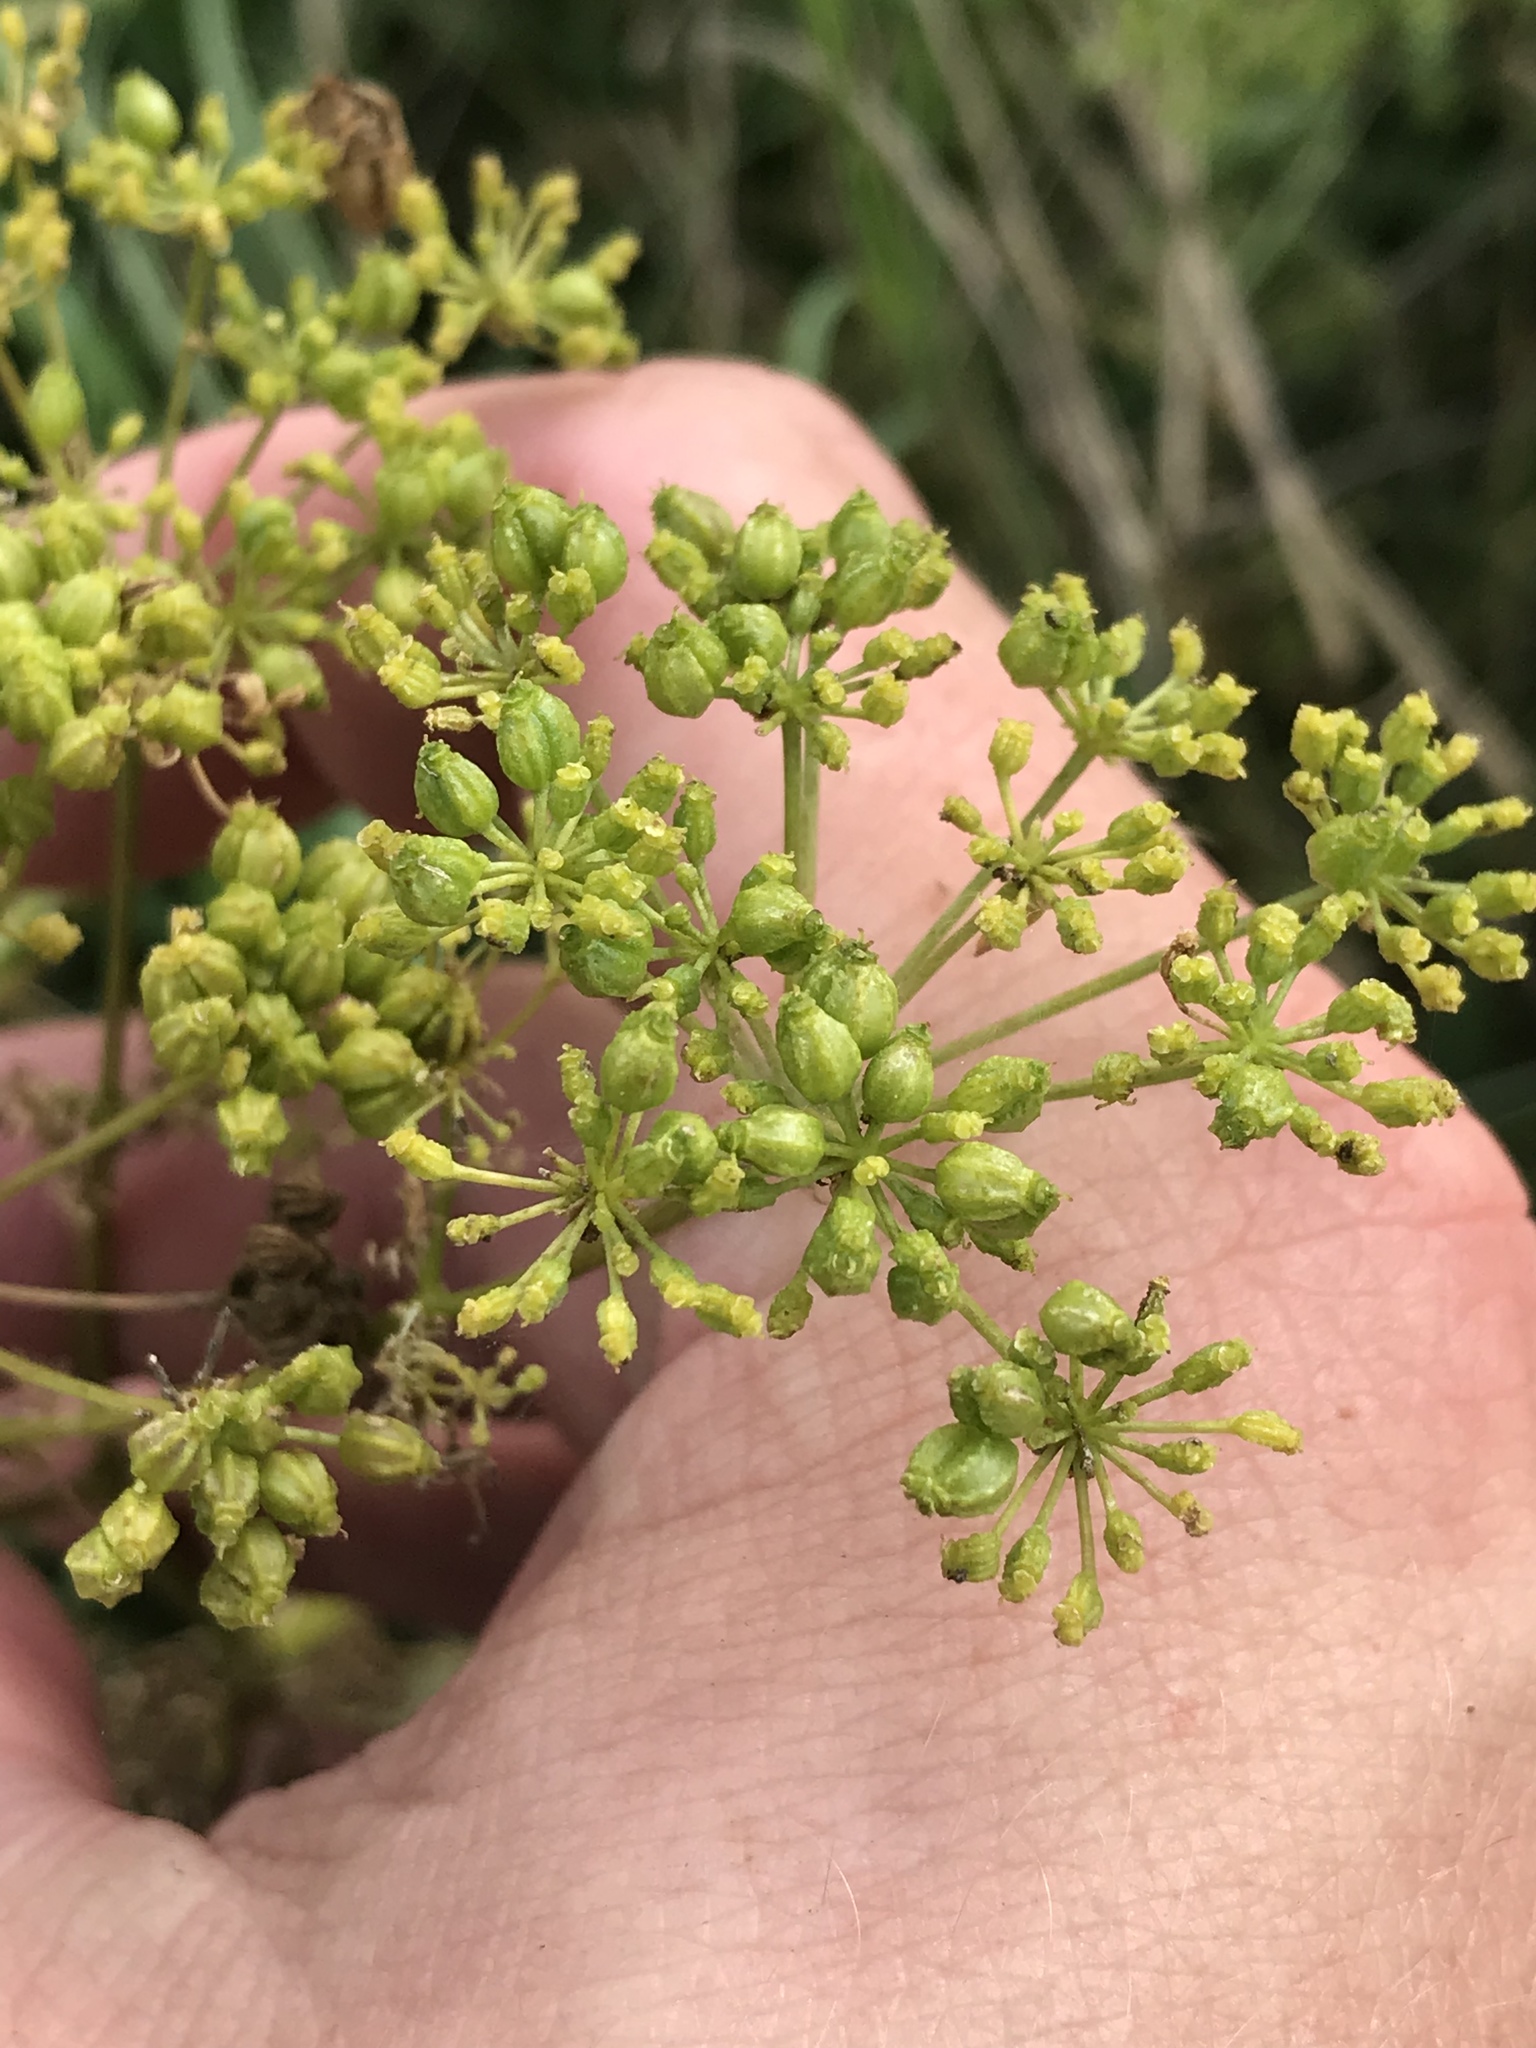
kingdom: Plantae
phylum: Tracheophyta
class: Magnoliopsida
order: Apiales
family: Apiaceae
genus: Conium
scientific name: Conium maculatum
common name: Hemlock
